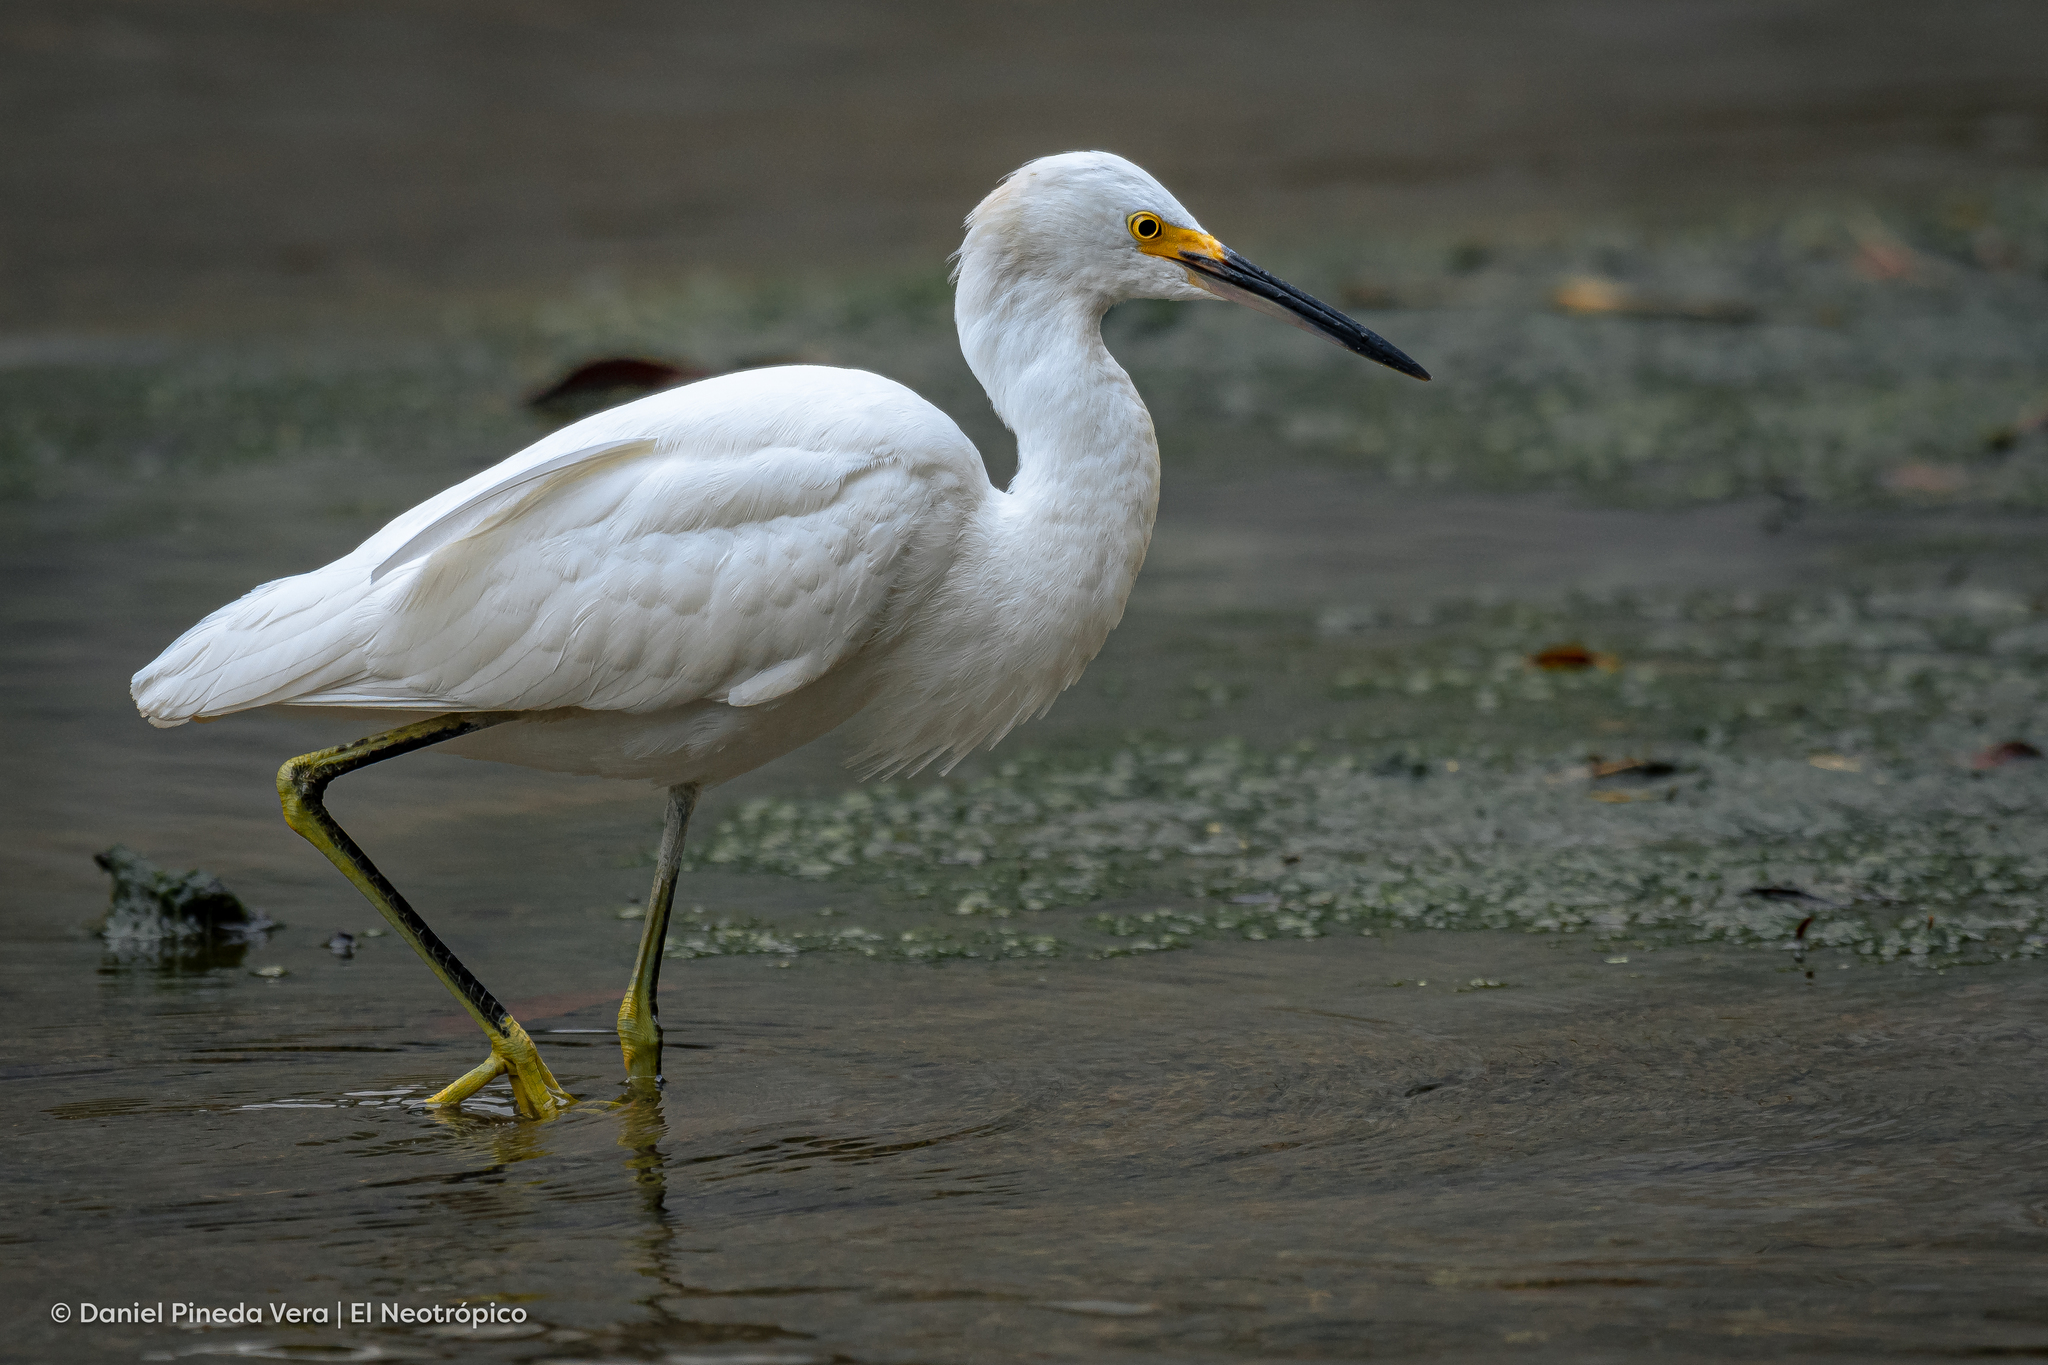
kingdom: Animalia
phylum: Chordata
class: Aves
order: Pelecaniformes
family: Ardeidae
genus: Egretta
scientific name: Egretta thula
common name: Snowy egret
